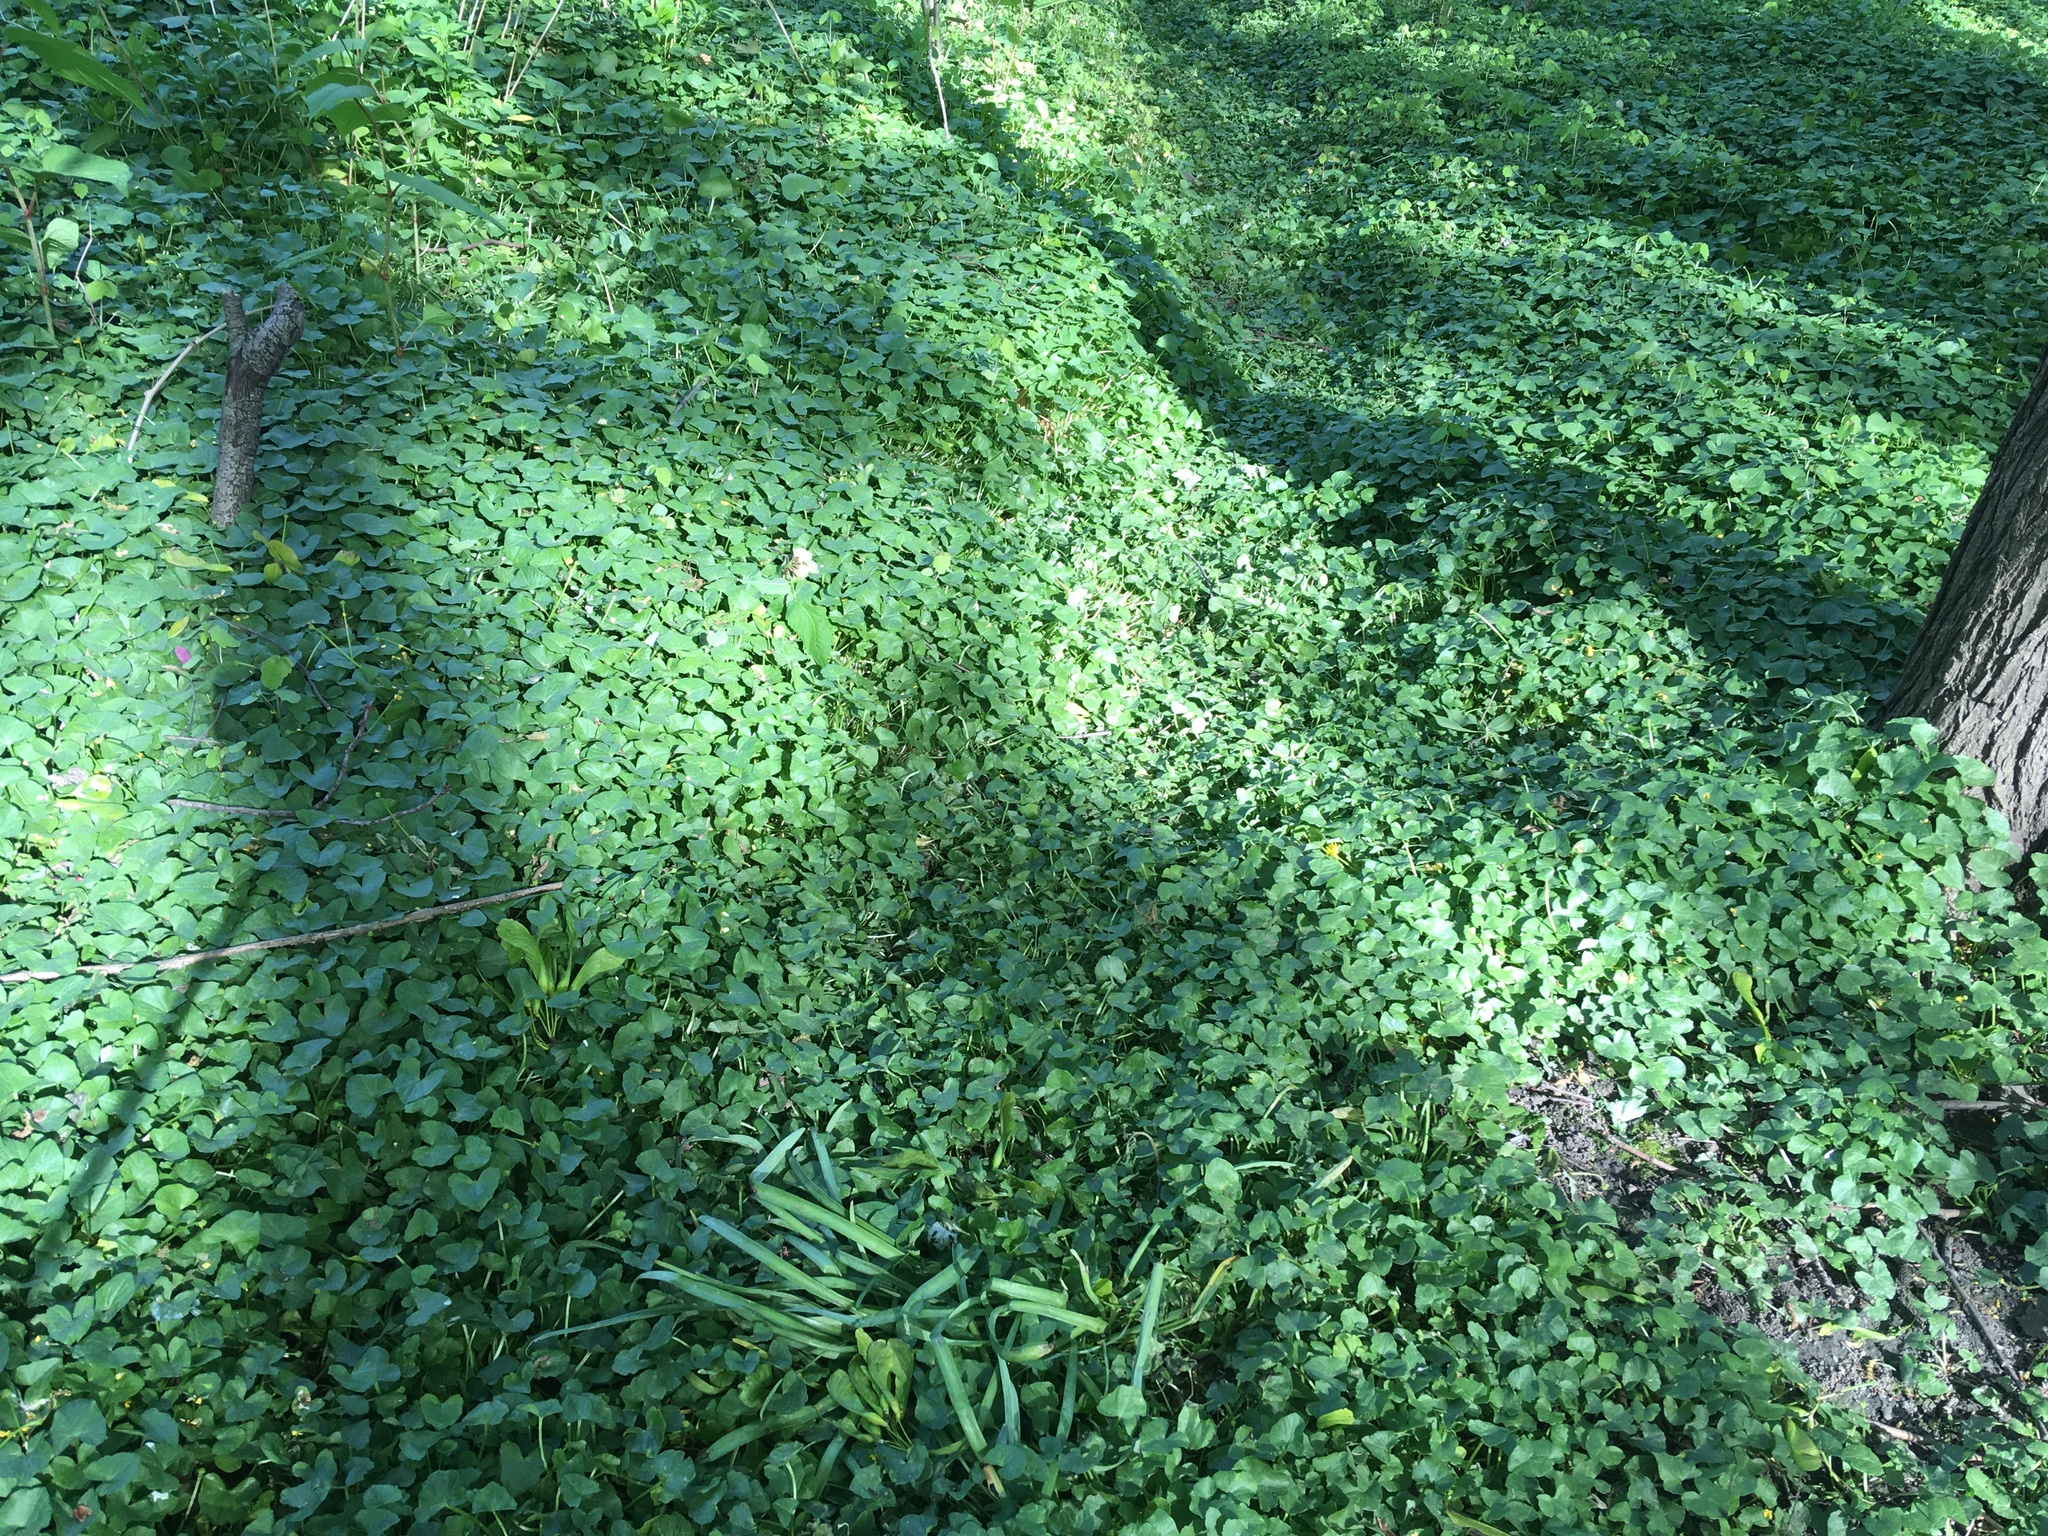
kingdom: Plantae
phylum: Tracheophyta
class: Magnoliopsida
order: Ranunculales
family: Ranunculaceae
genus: Ficaria
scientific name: Ficaria verna
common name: Lesser celandine
